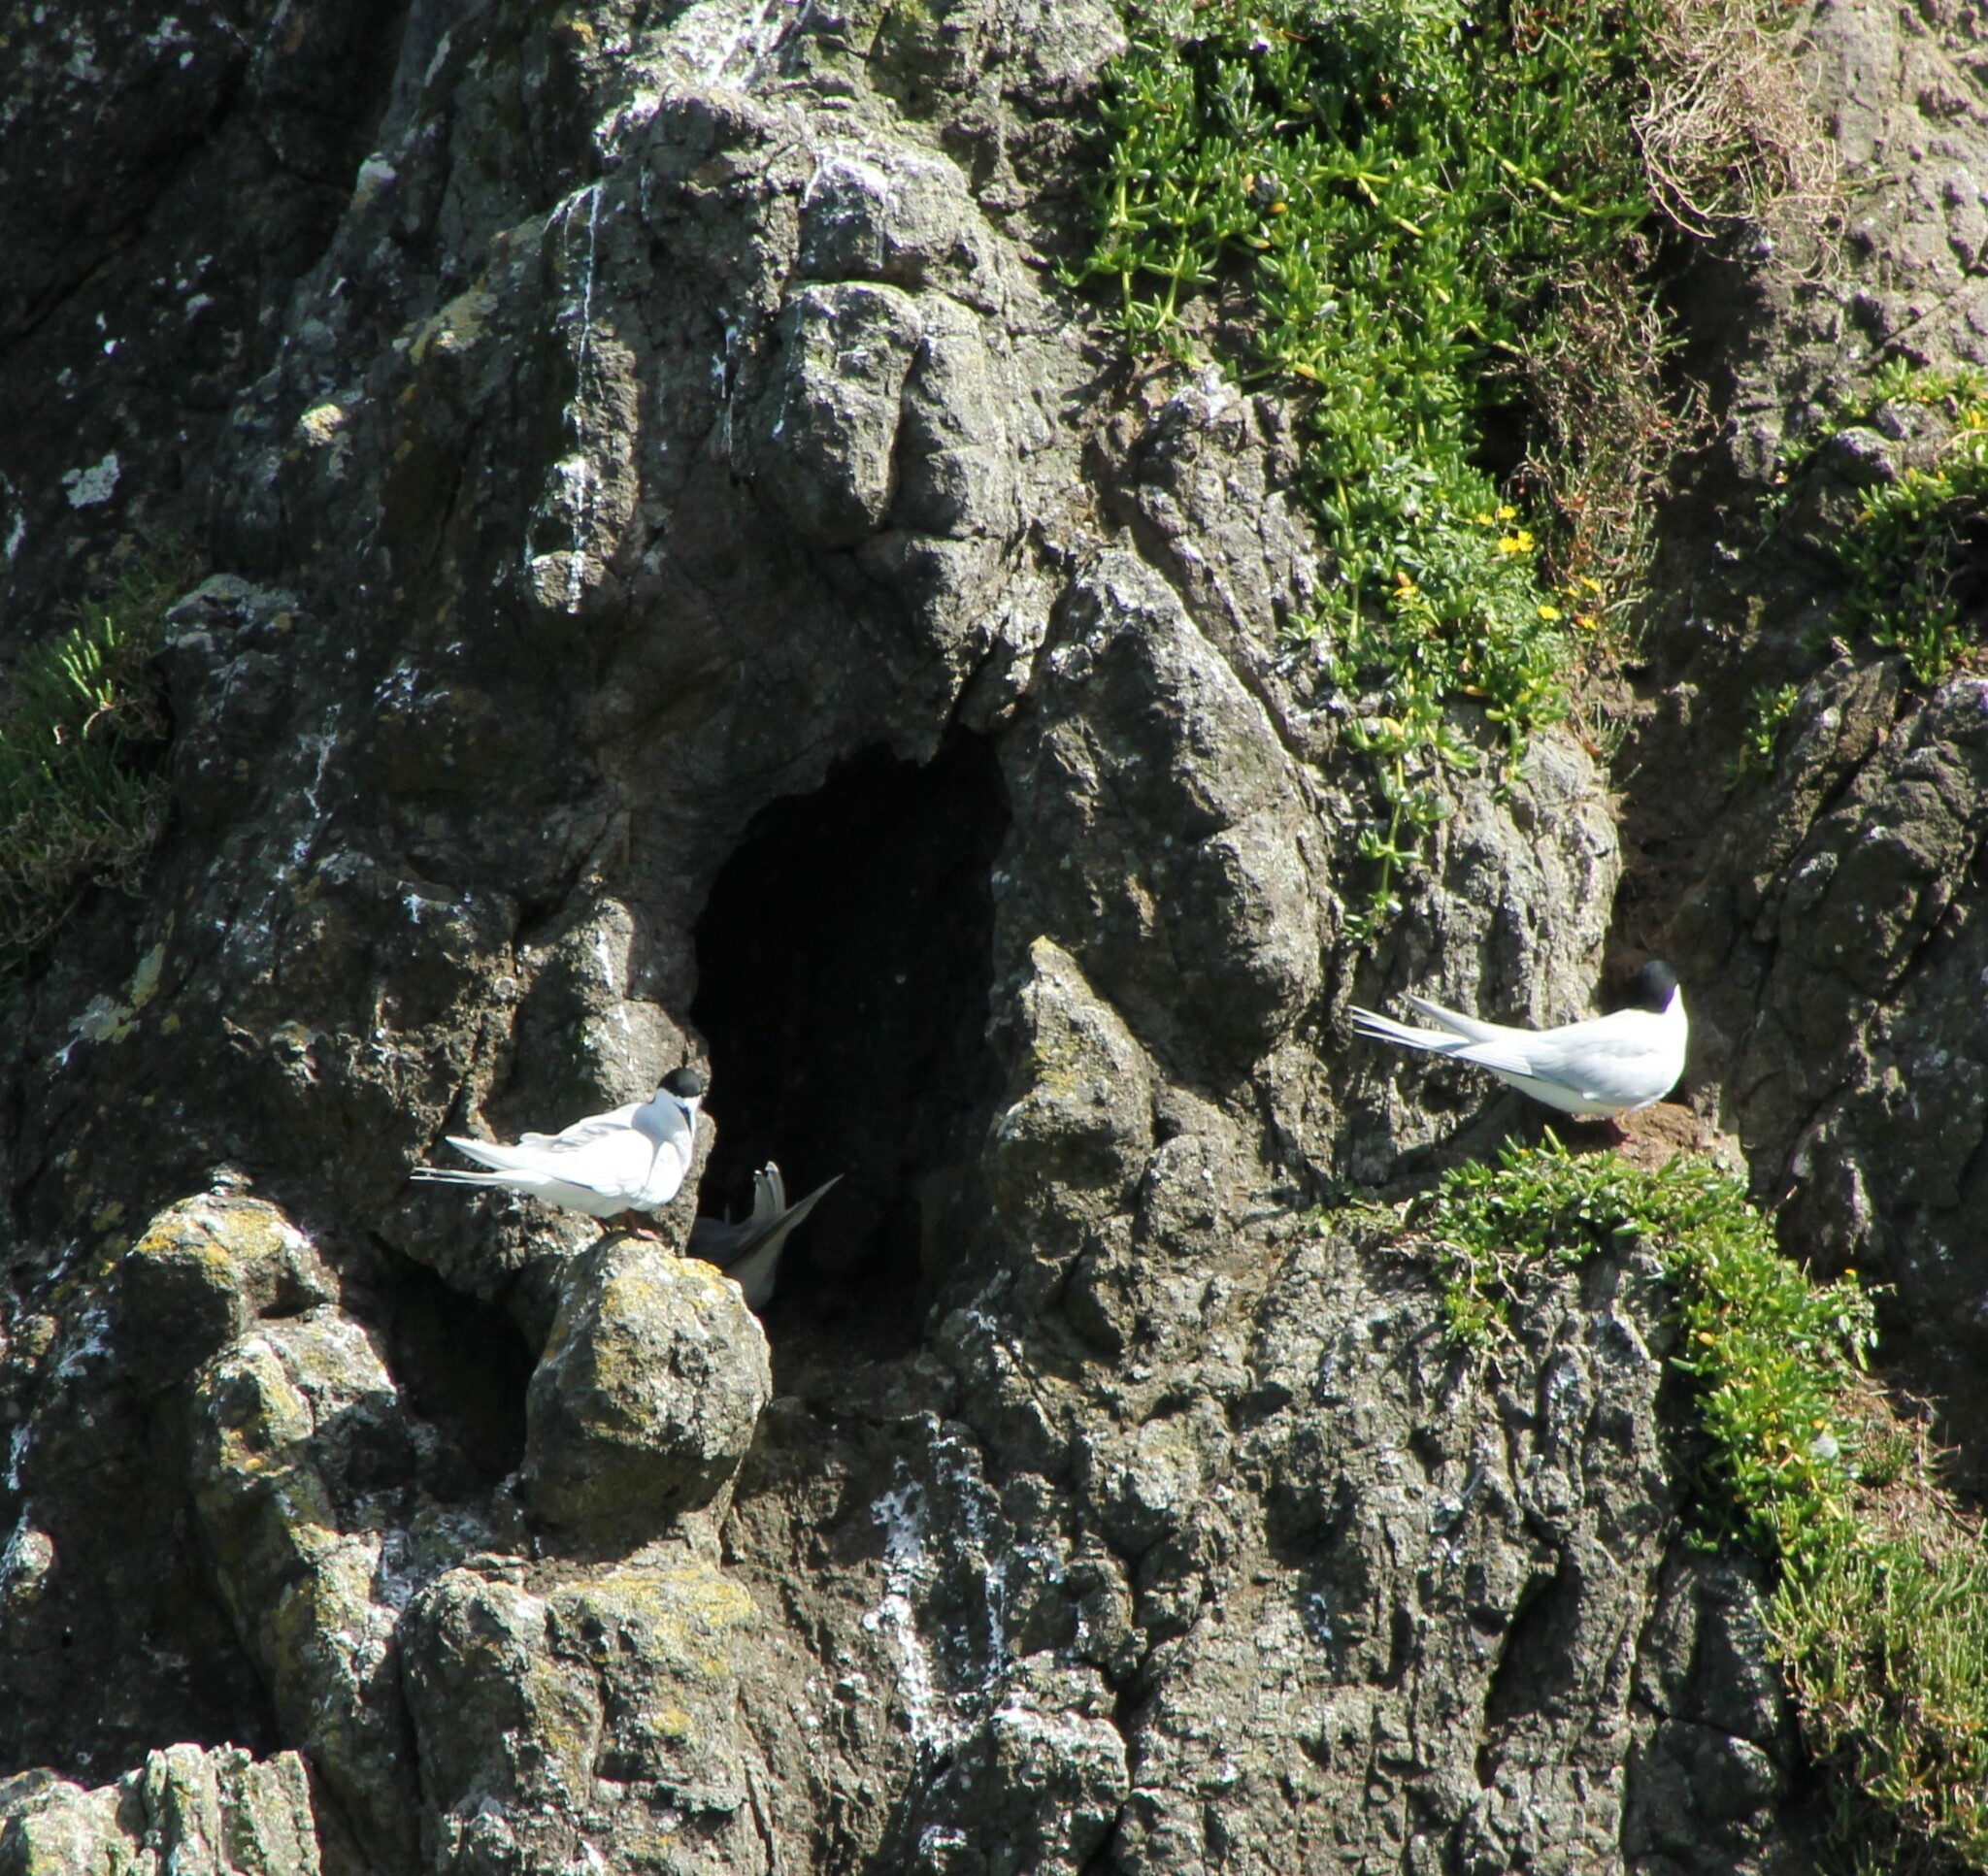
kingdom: Animalia
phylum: Chordata
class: Aves
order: Charadriiformes
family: Laridae
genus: Sterna
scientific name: Sterna striata
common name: White-fronted tern
